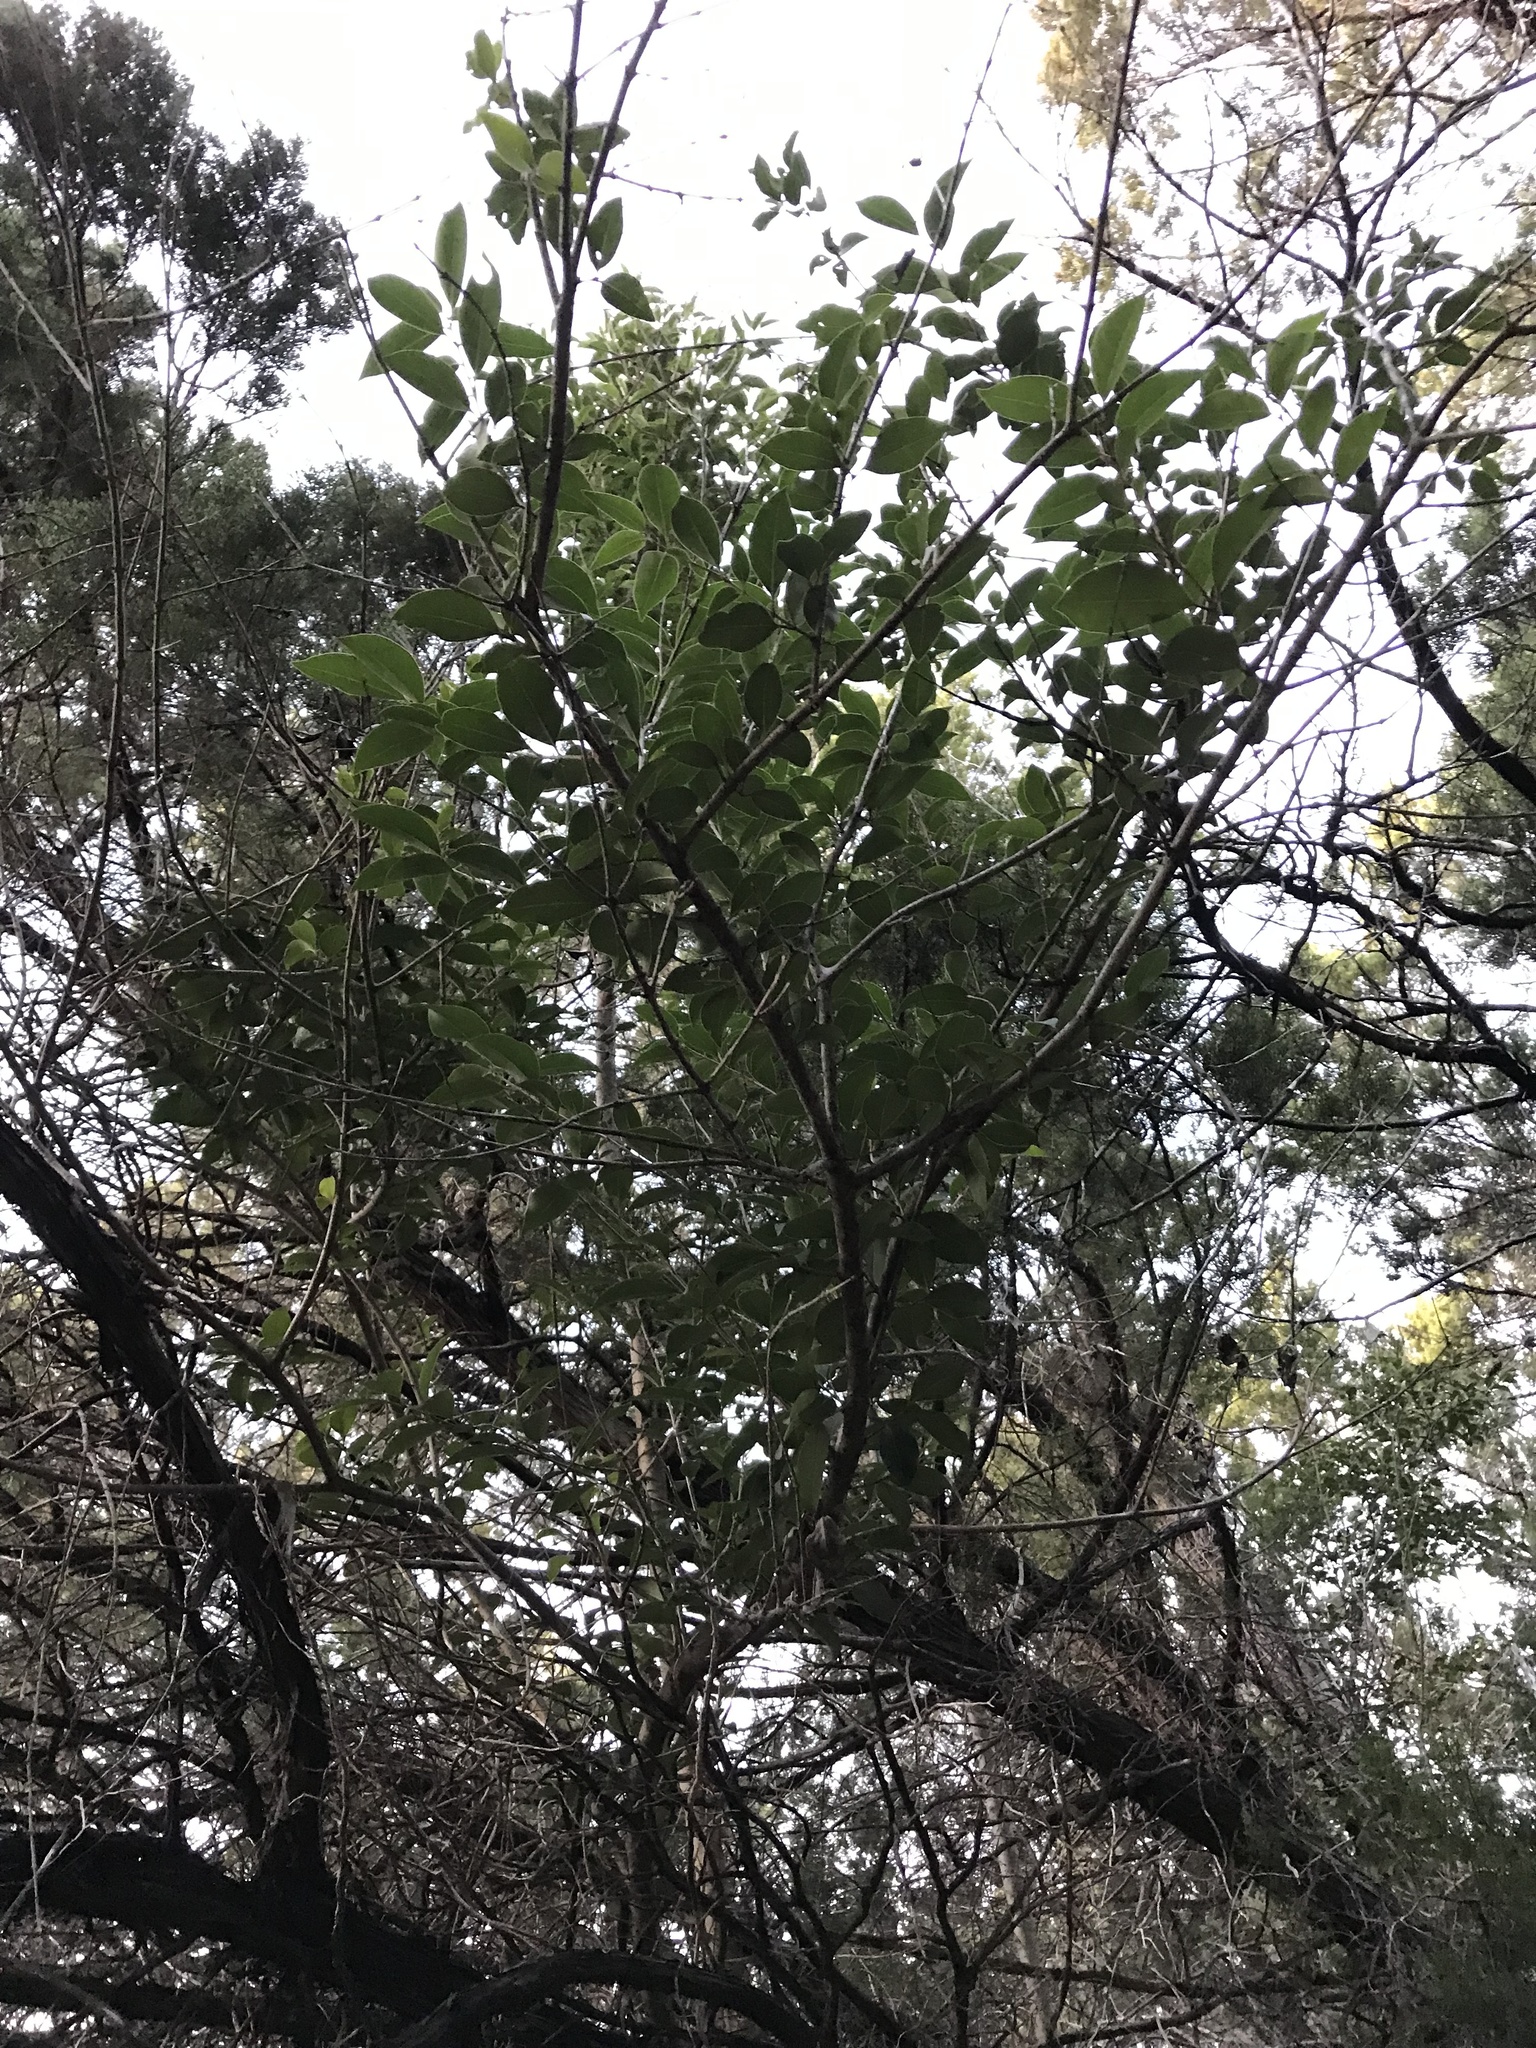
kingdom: Plantae
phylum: Tracheophyta
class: Magnoliopsida
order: Lamiales
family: Oleaceae
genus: Ligustrum
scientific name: Ligustrum lucidum
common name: Glossy privet
